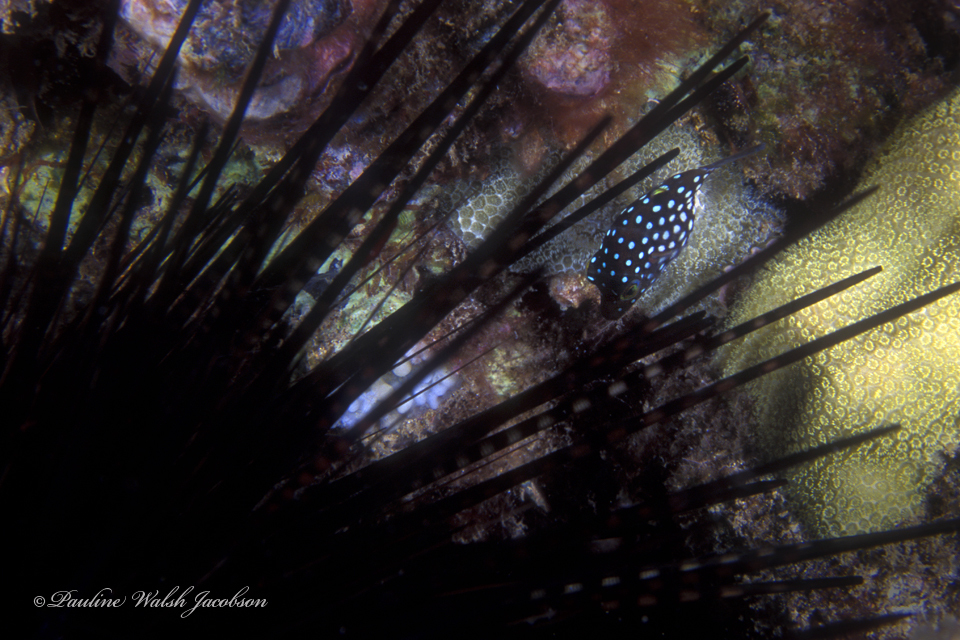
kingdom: Animalia
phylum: Chordata
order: Tetraodontiformes
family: Tetraodontidae
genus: Canthigaster
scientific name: Canthigaster jactator
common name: Hawaiian whitespotted toby
